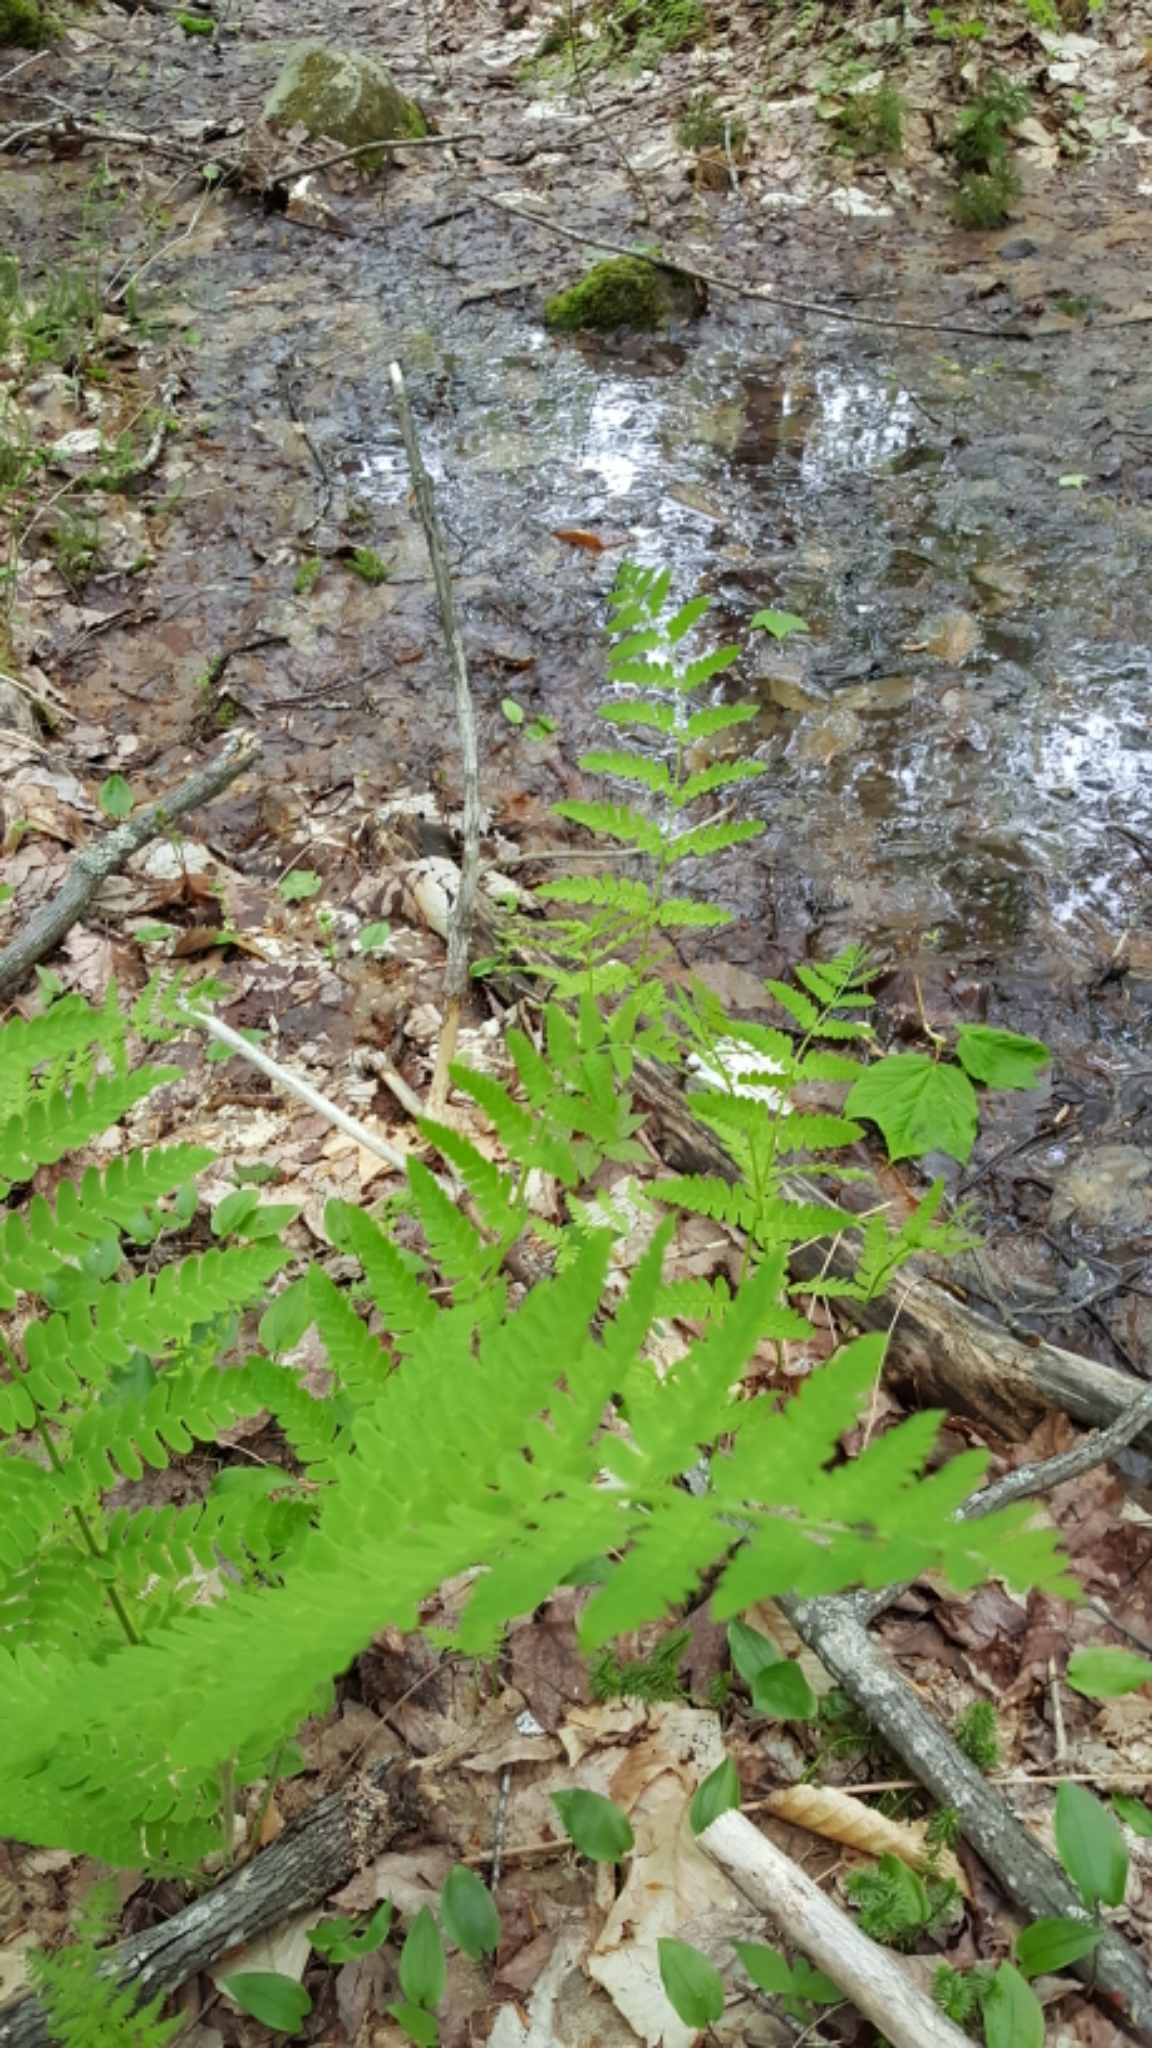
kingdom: Plantae
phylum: Tracheophyta
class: Polypodiopsida
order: Osmundales
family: Osmundaceae
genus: Claytosmunda
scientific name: Claytosmunda claytoniana
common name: Clayton's fern
